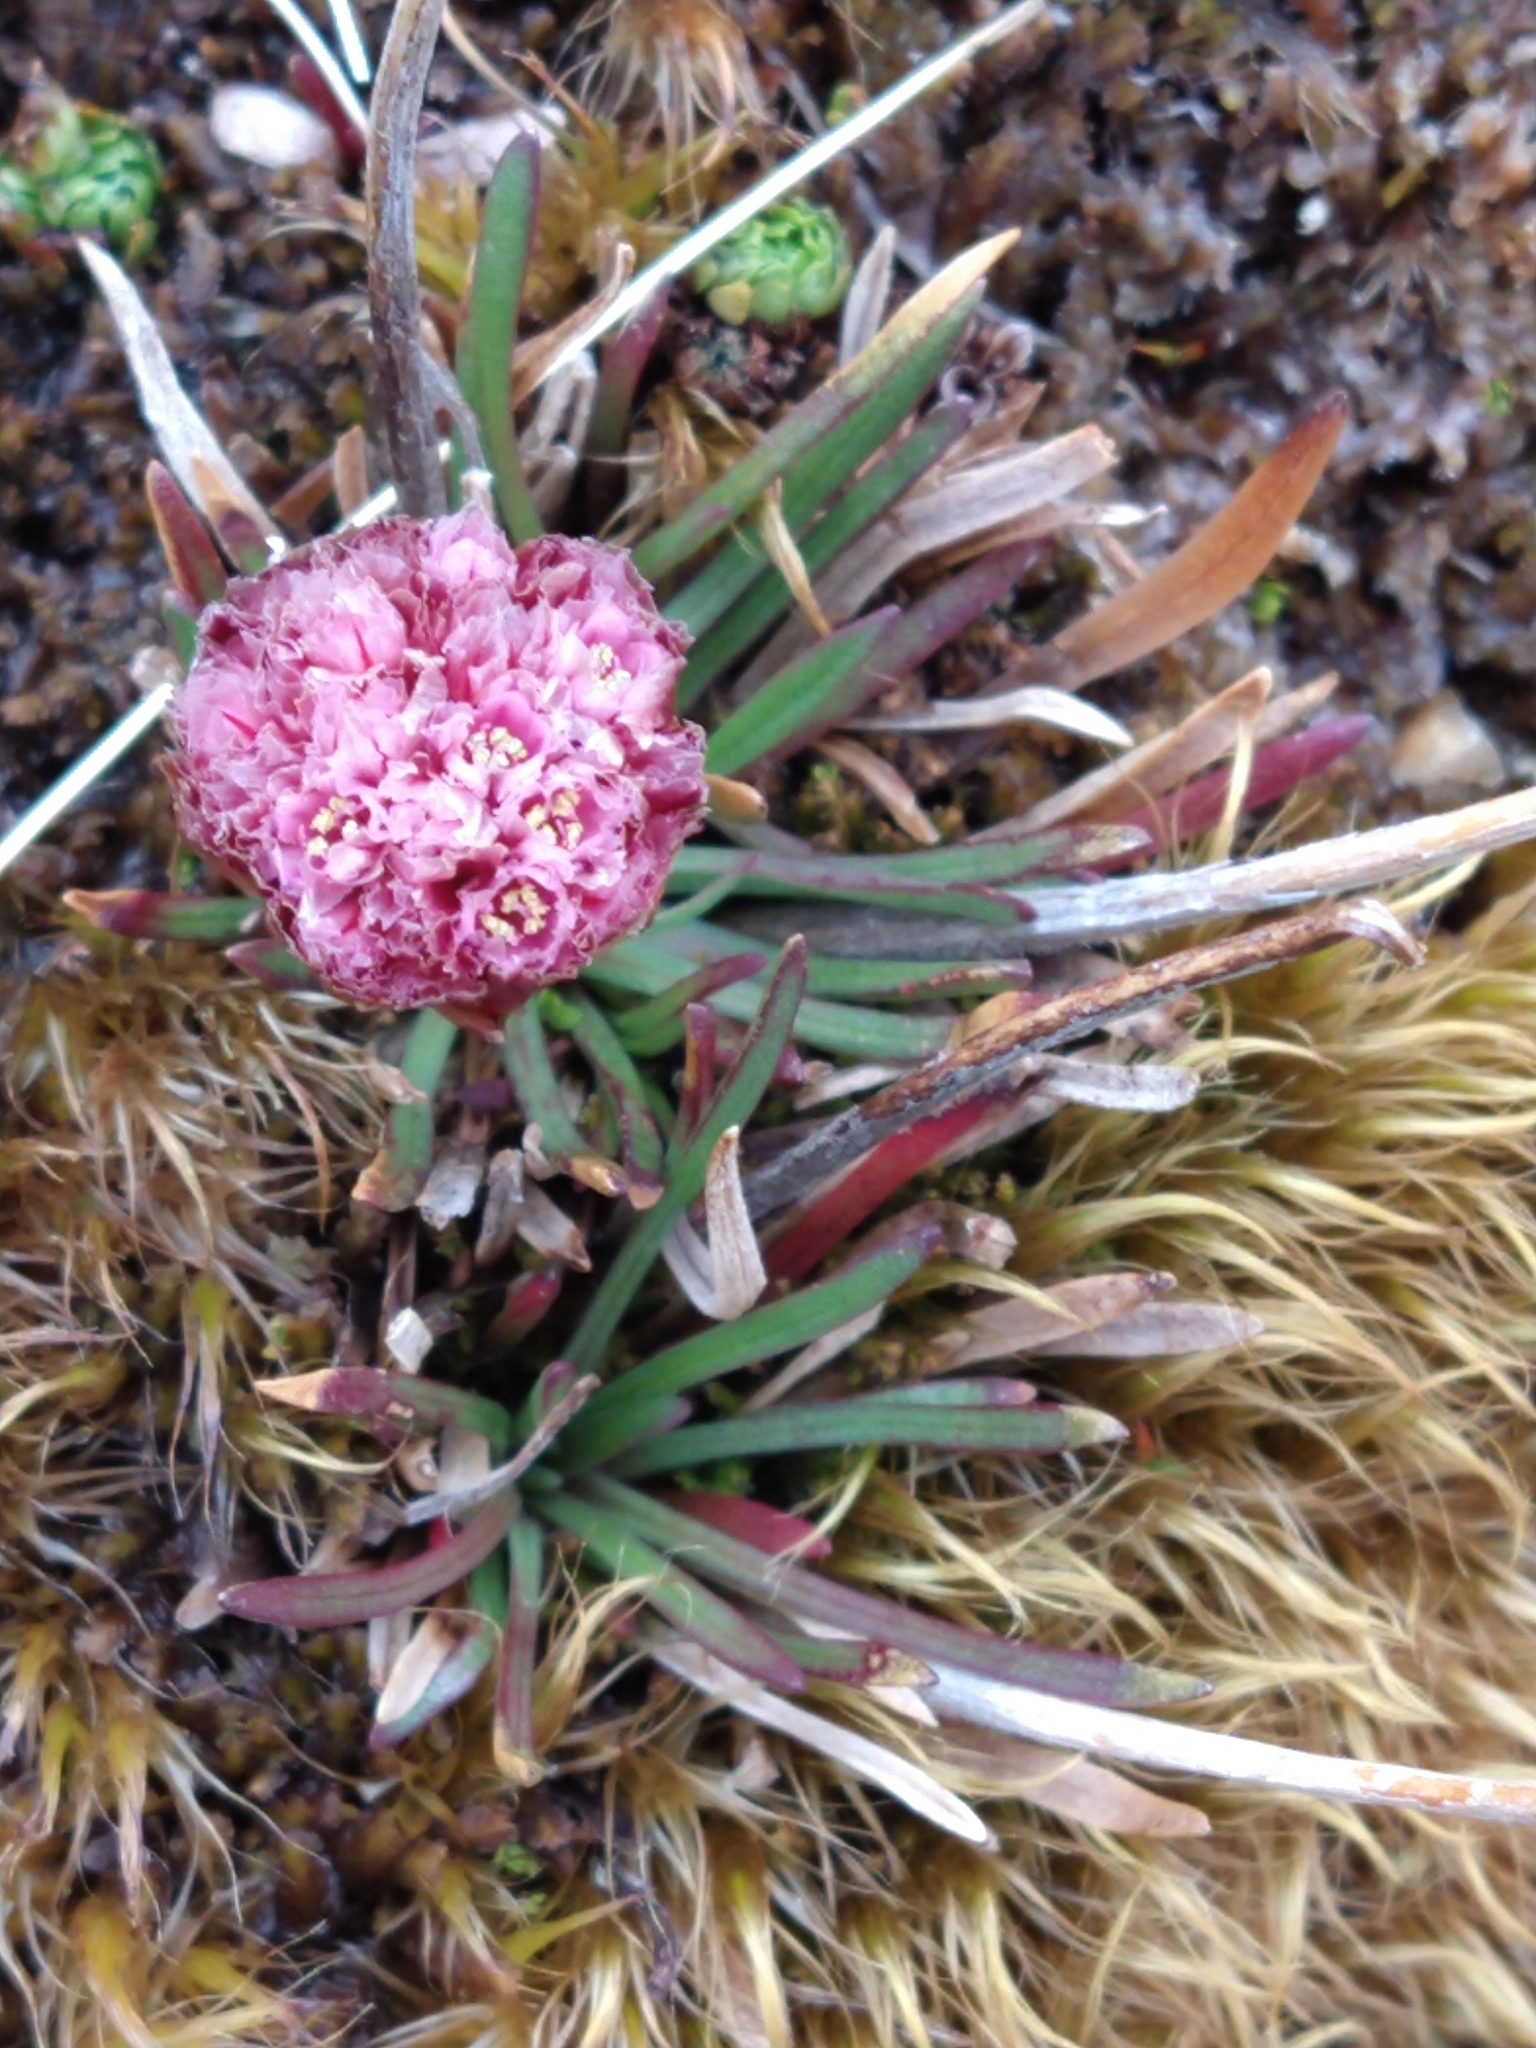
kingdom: Plantae
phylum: Tracheophyta
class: Magnoliopsida
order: Caryophyllales
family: Plumbaginaceae
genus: Armeria
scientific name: Armeria curvifolia
